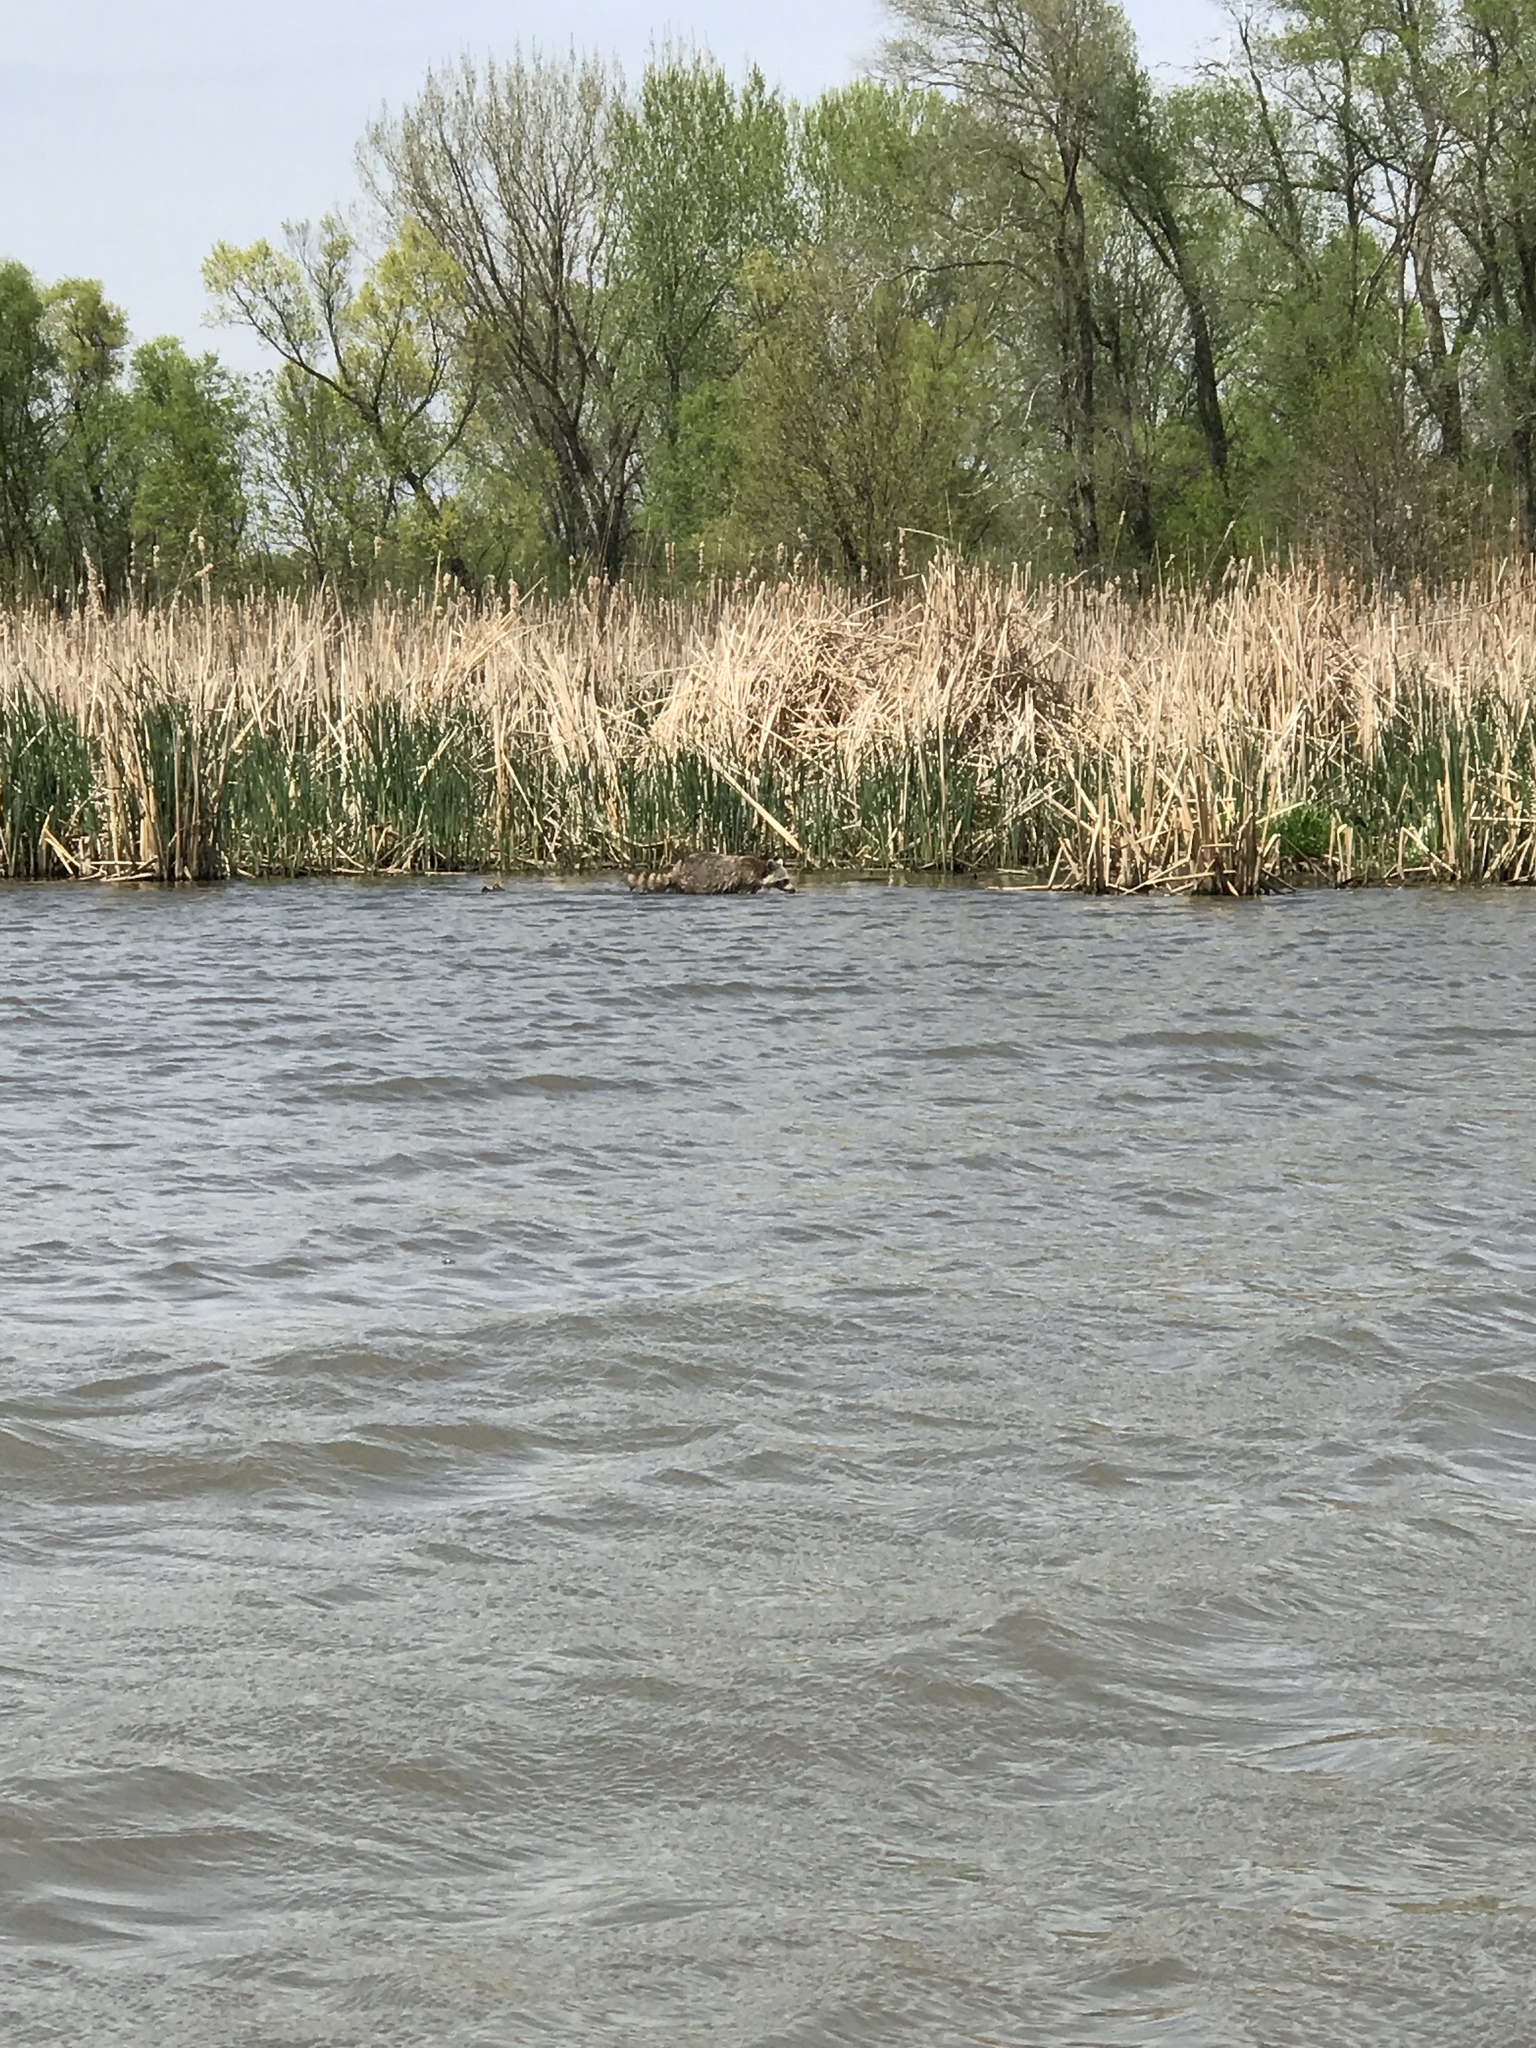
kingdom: Animalia
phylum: Chordata
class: Mammalia
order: Carnivora
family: Procyonidae
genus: Procyon
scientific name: Procyon lotor
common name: Raccoon
